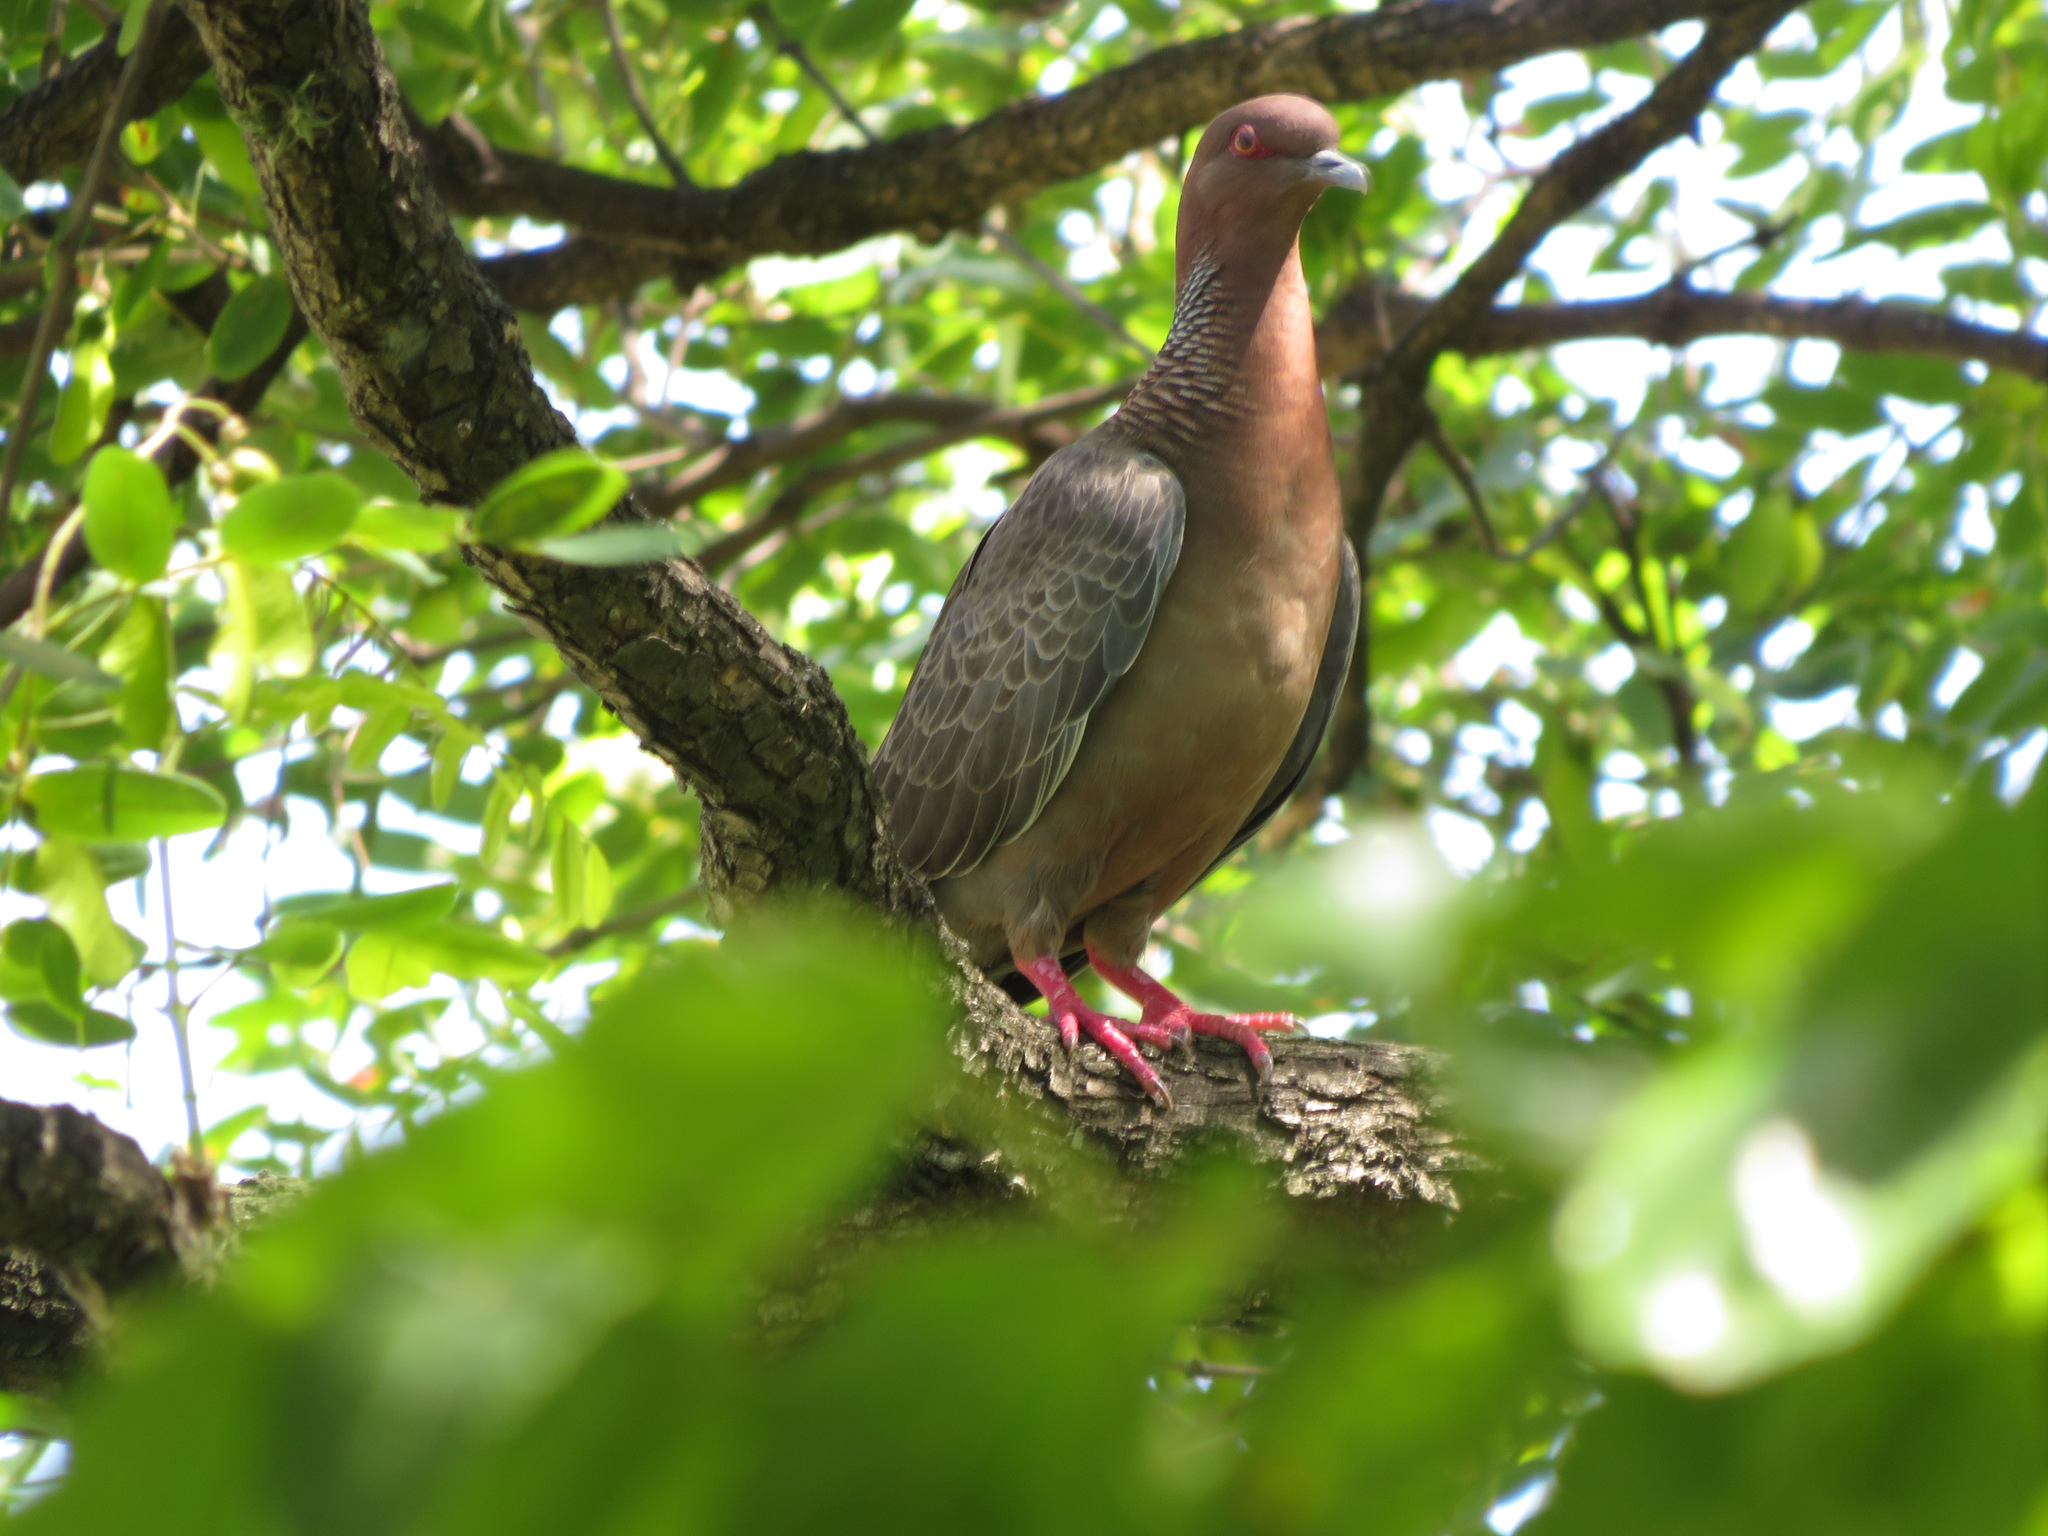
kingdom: Animalia
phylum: Chordata
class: Aves
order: Columbiformes
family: Columbidae
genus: Patagioenas
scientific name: Patagioenas picazuro
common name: Picazuro pigeon
